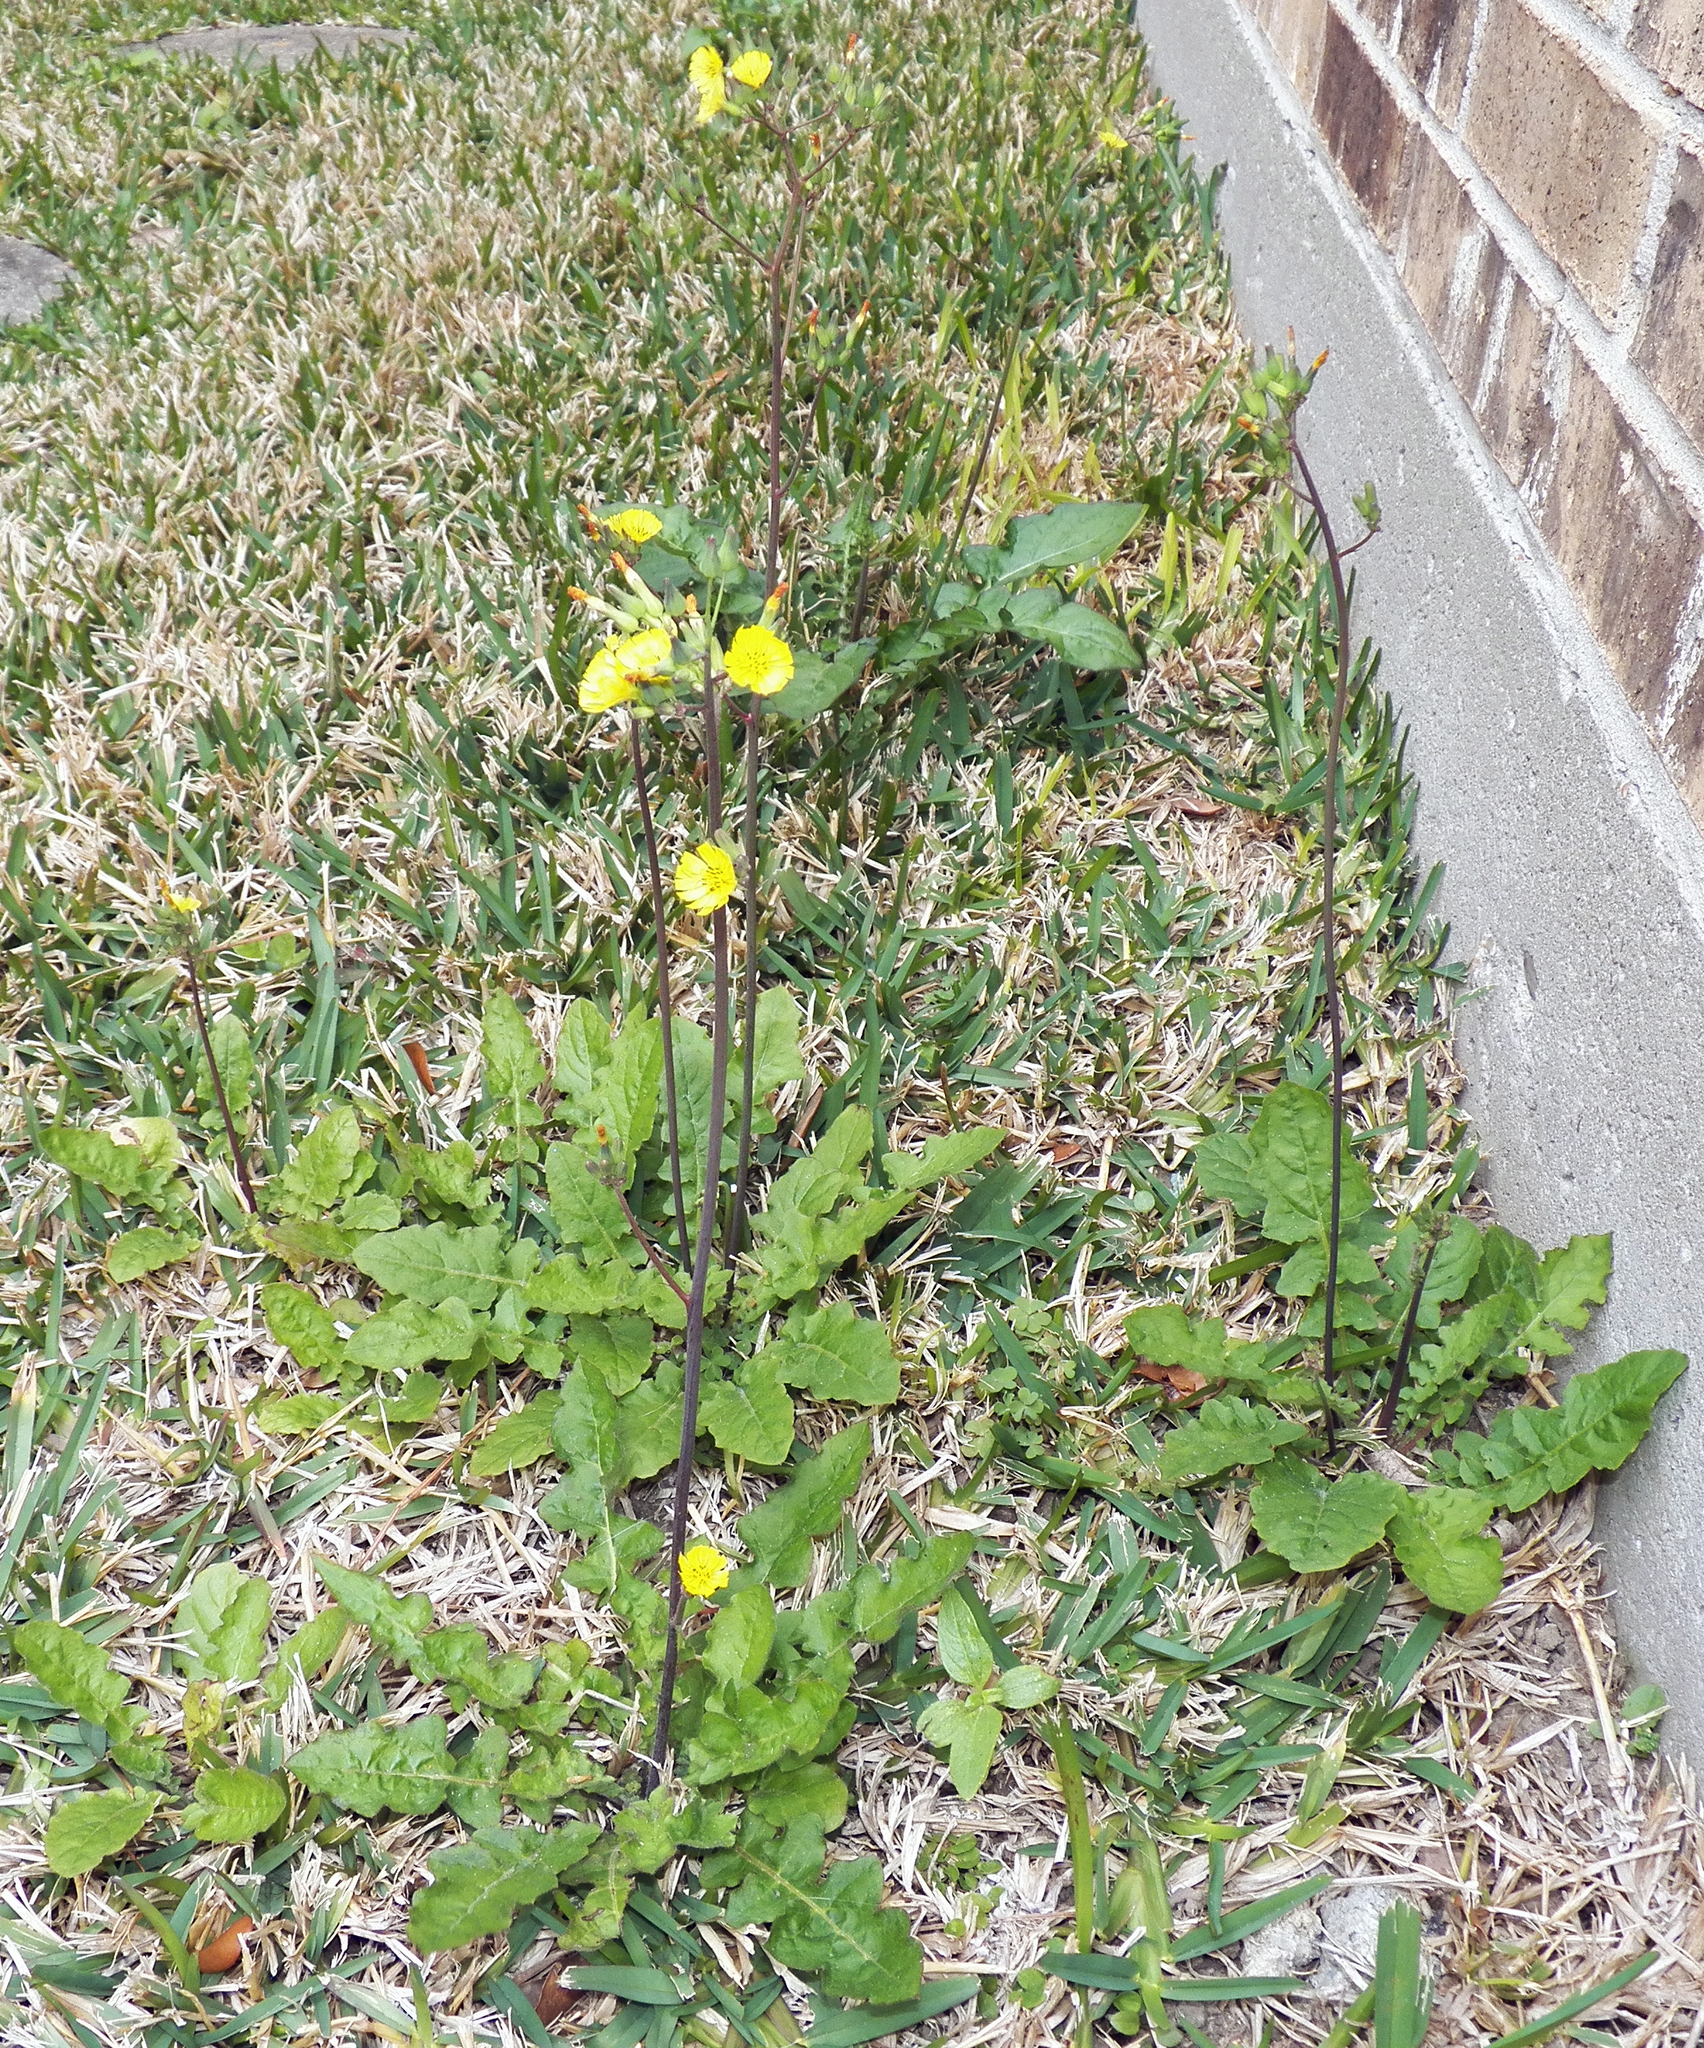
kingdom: Plantae
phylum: Tracheophyta
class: Magnoliopsida
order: Asterales
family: Asteraceae
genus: Youngia
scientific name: Youngia japonica
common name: Oriental false hawksbeard
